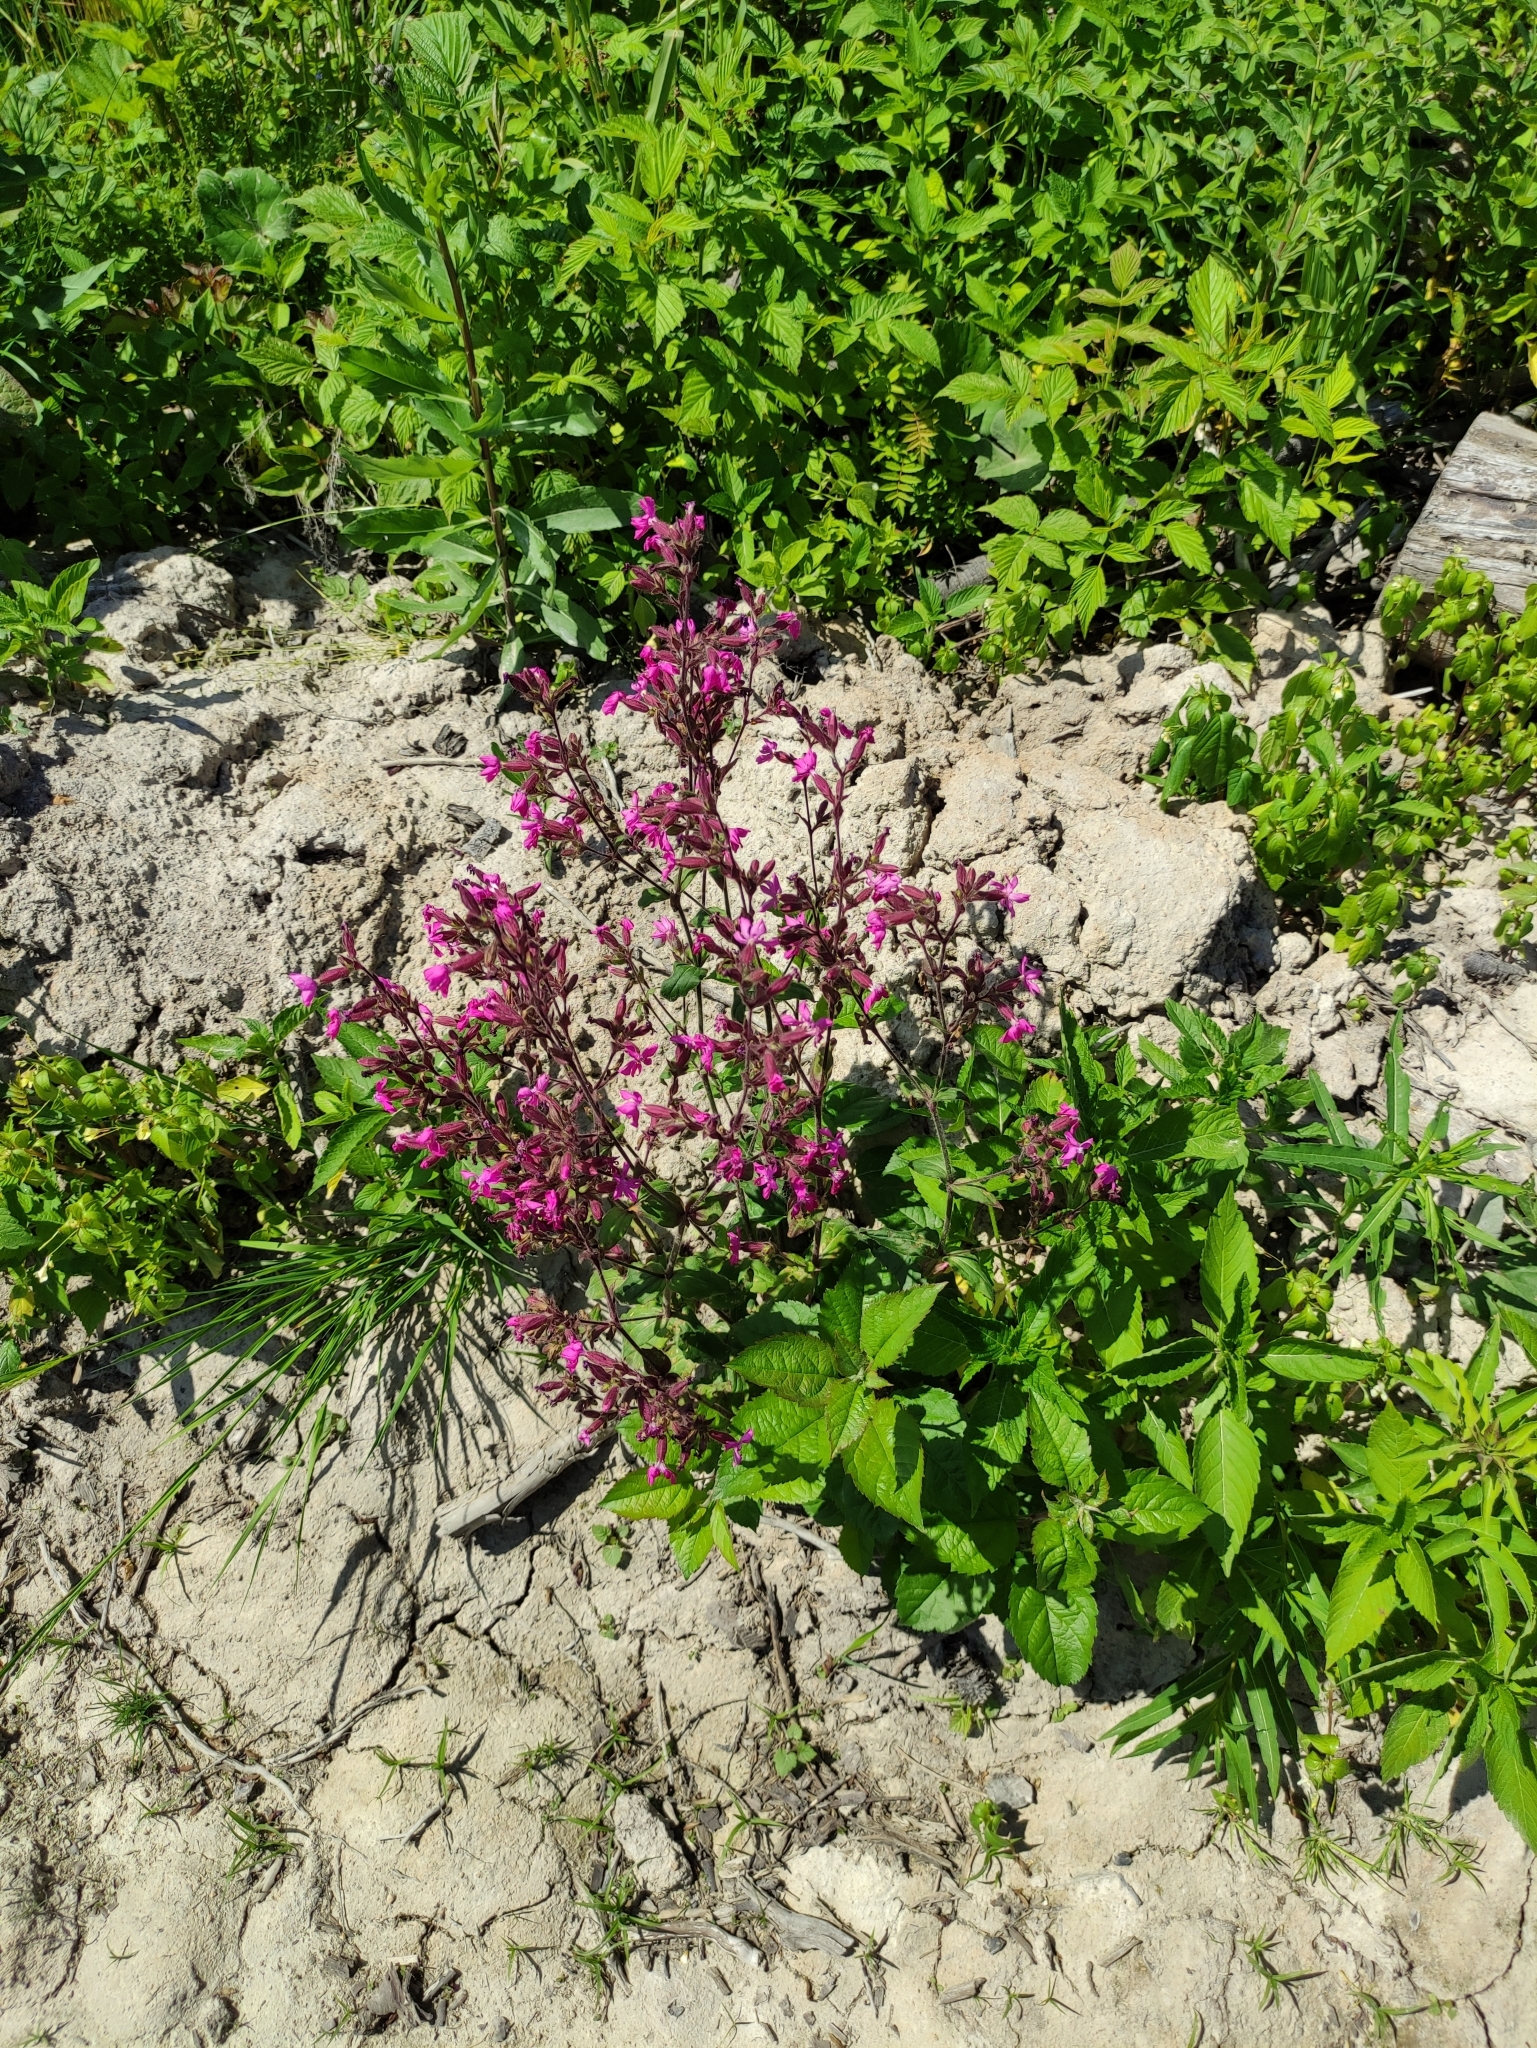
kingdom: Plantae
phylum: Tracheophyta
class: Magnoliopsida
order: Caryophyllales
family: Caryophyllaceae
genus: Viscaria
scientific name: Viscaria vulgaris
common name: Clammy campion
